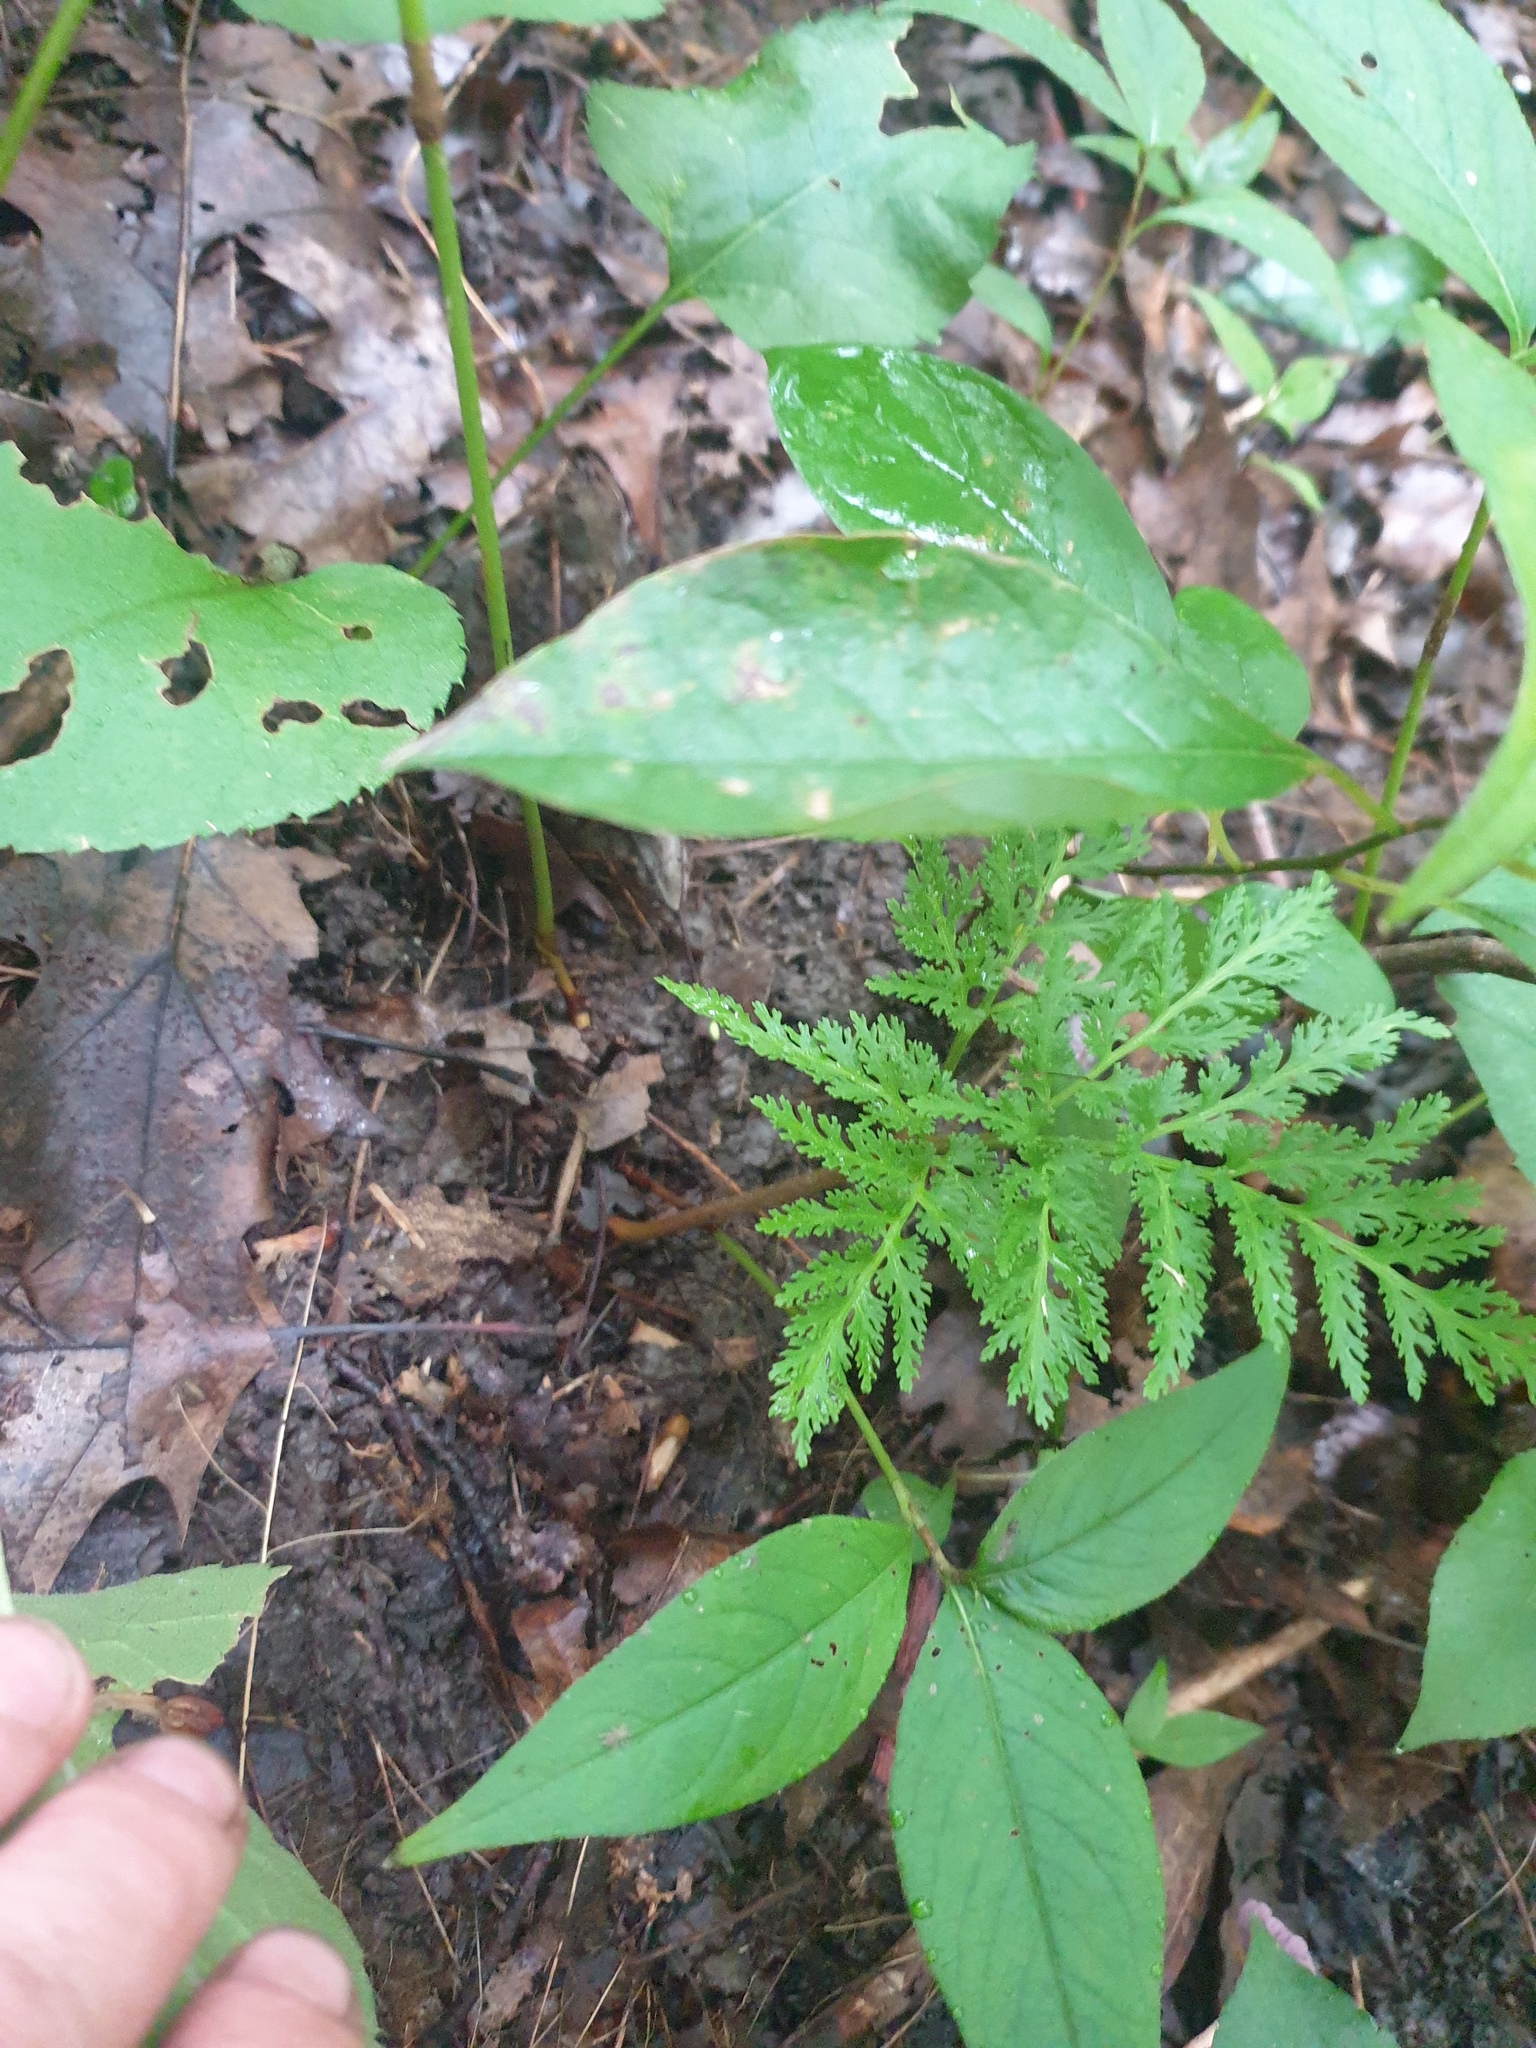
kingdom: Plantae
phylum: Tracheophyta
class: Polypodiopsida
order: Ophioglossales
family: Ophioglossaceae
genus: Sceptridium
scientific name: Sceptridium dissectum
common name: Cut-leaved grapefern
